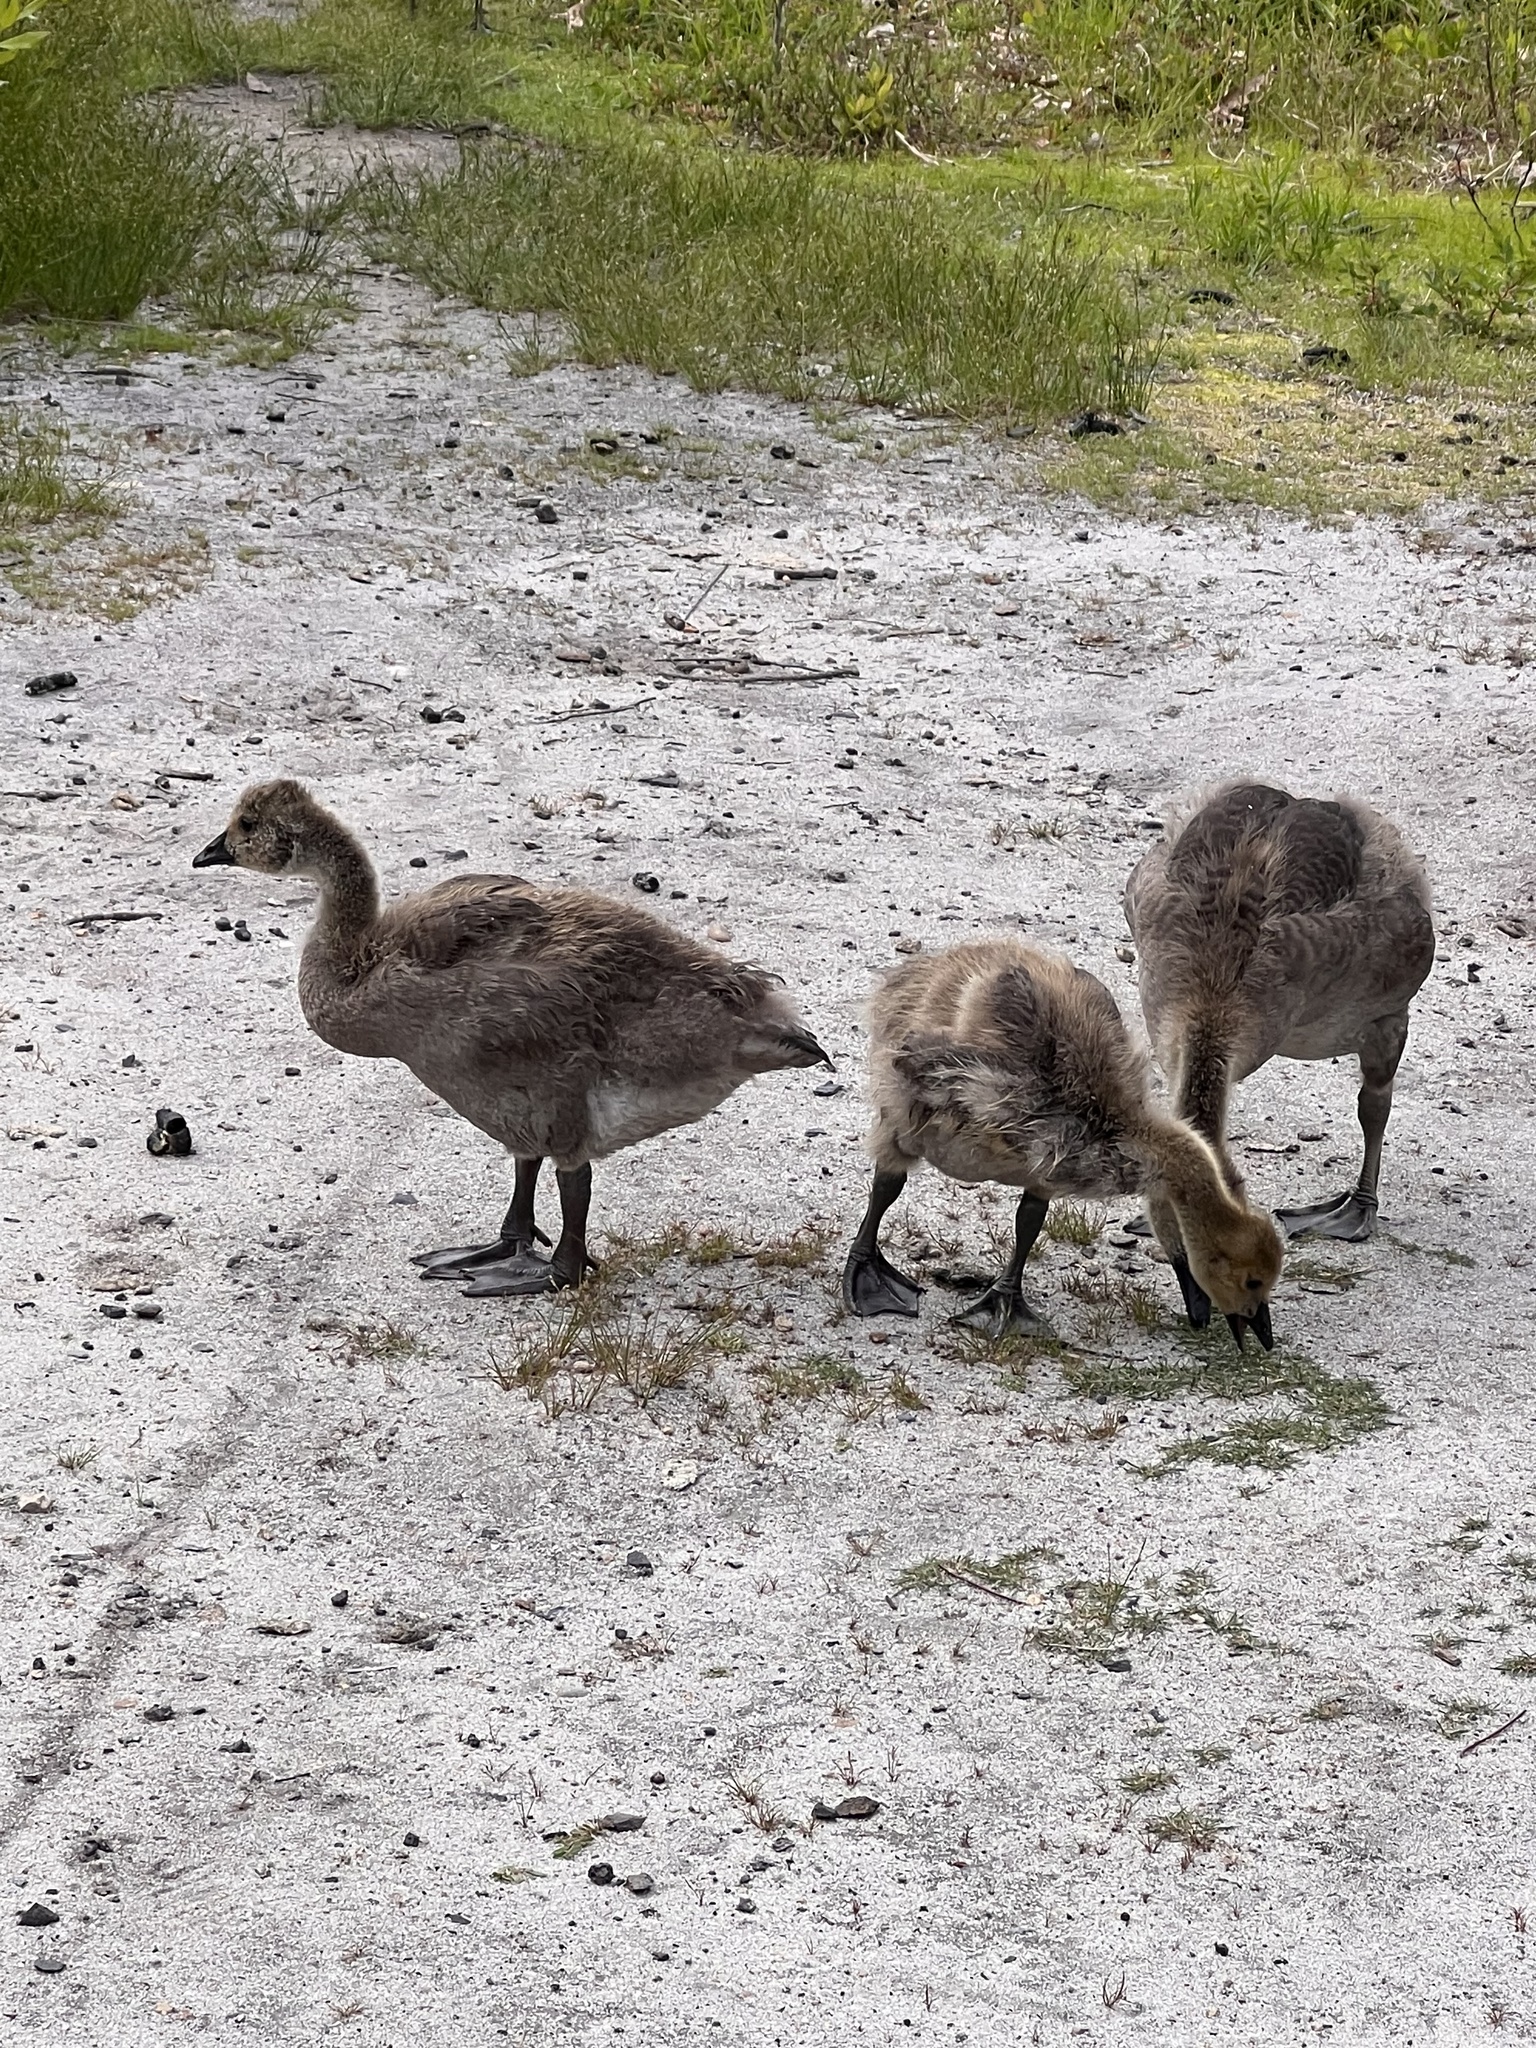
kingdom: Animalia
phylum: Chordata
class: Aves
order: Anseriformes
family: Anatidae
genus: Branta
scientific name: Branta canadensis
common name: Canada goose
